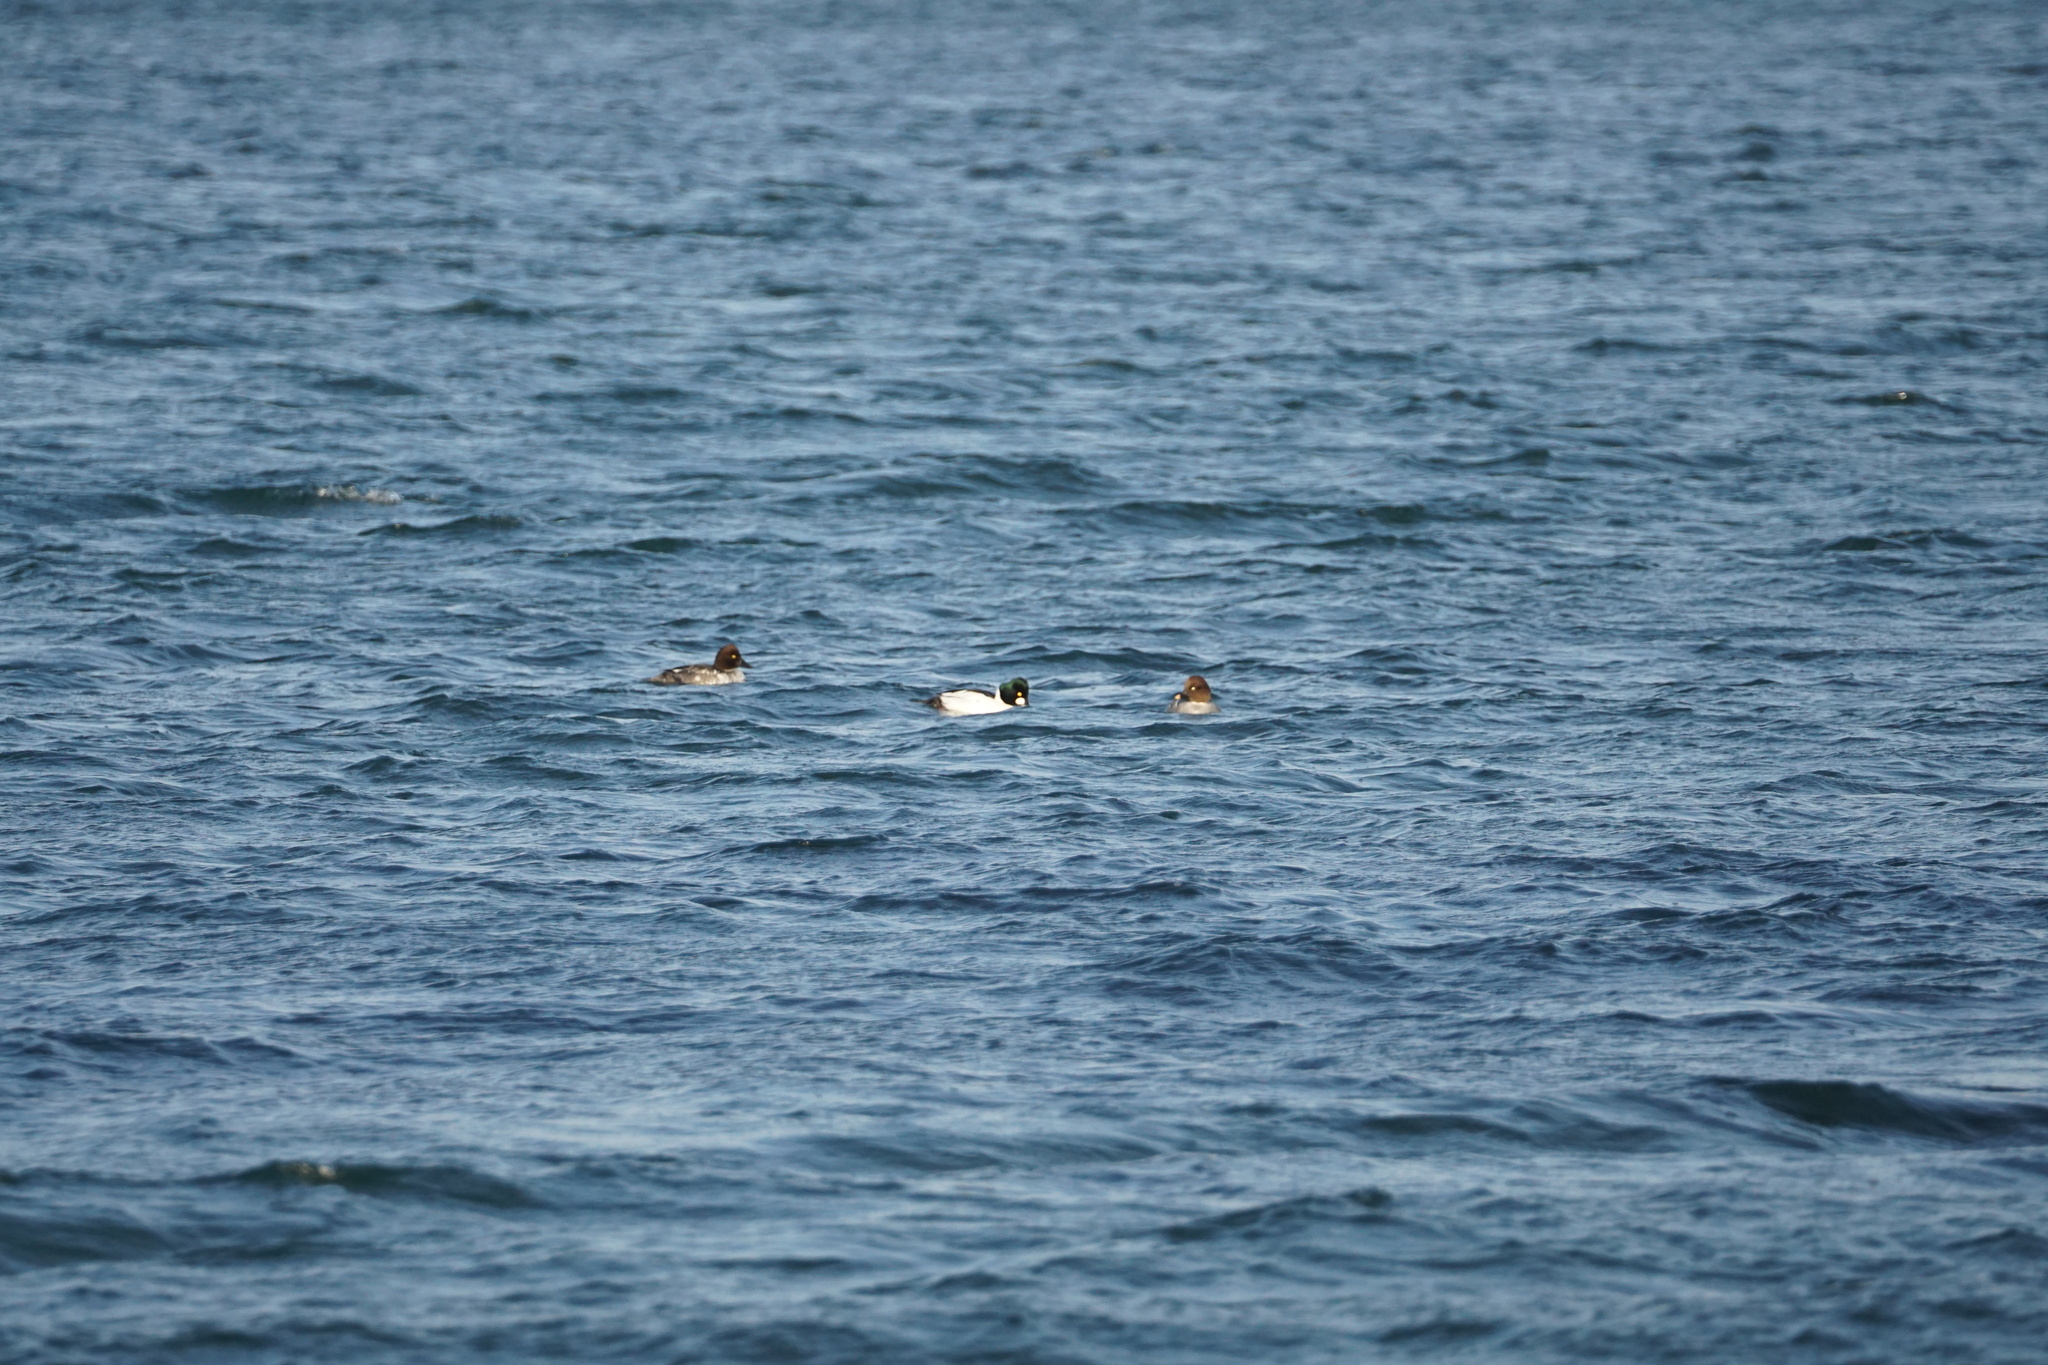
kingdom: Animalia
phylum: Chordata
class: Aves
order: Anseriformes
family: Anatidae
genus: Bucephala
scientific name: Bucephala clangula
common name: Common goldeneye
